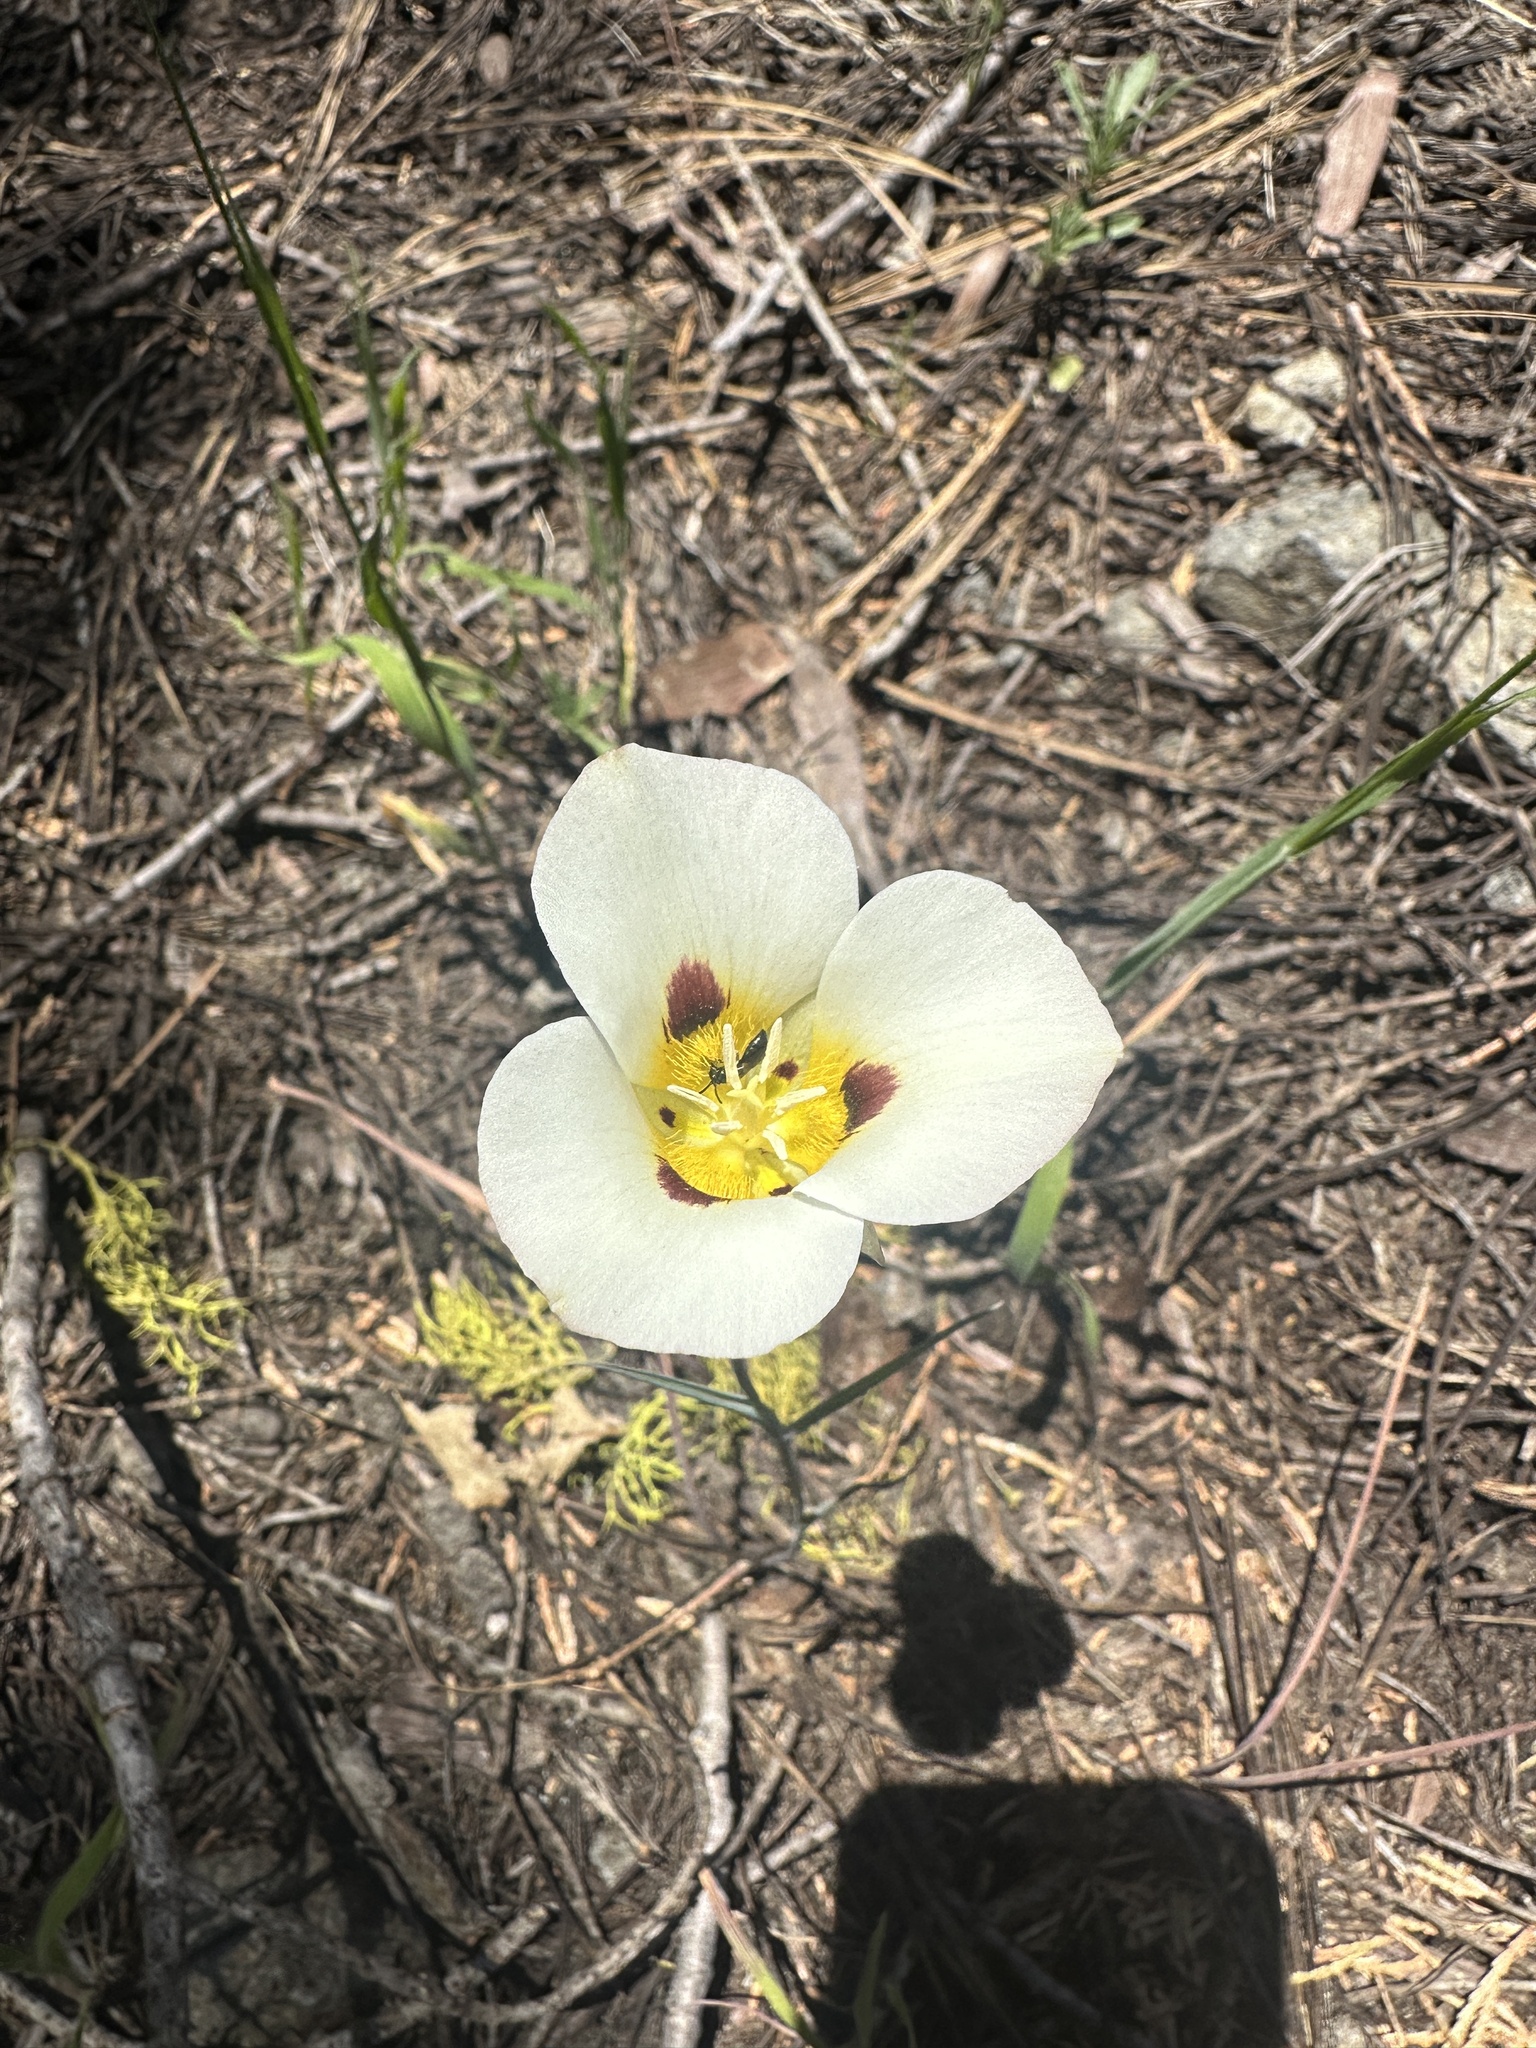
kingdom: Plantae
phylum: Tracheophyta
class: Liliopsida
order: Liliales
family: Liliaceae
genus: Calochortus
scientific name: Calochortus leichtlinii
